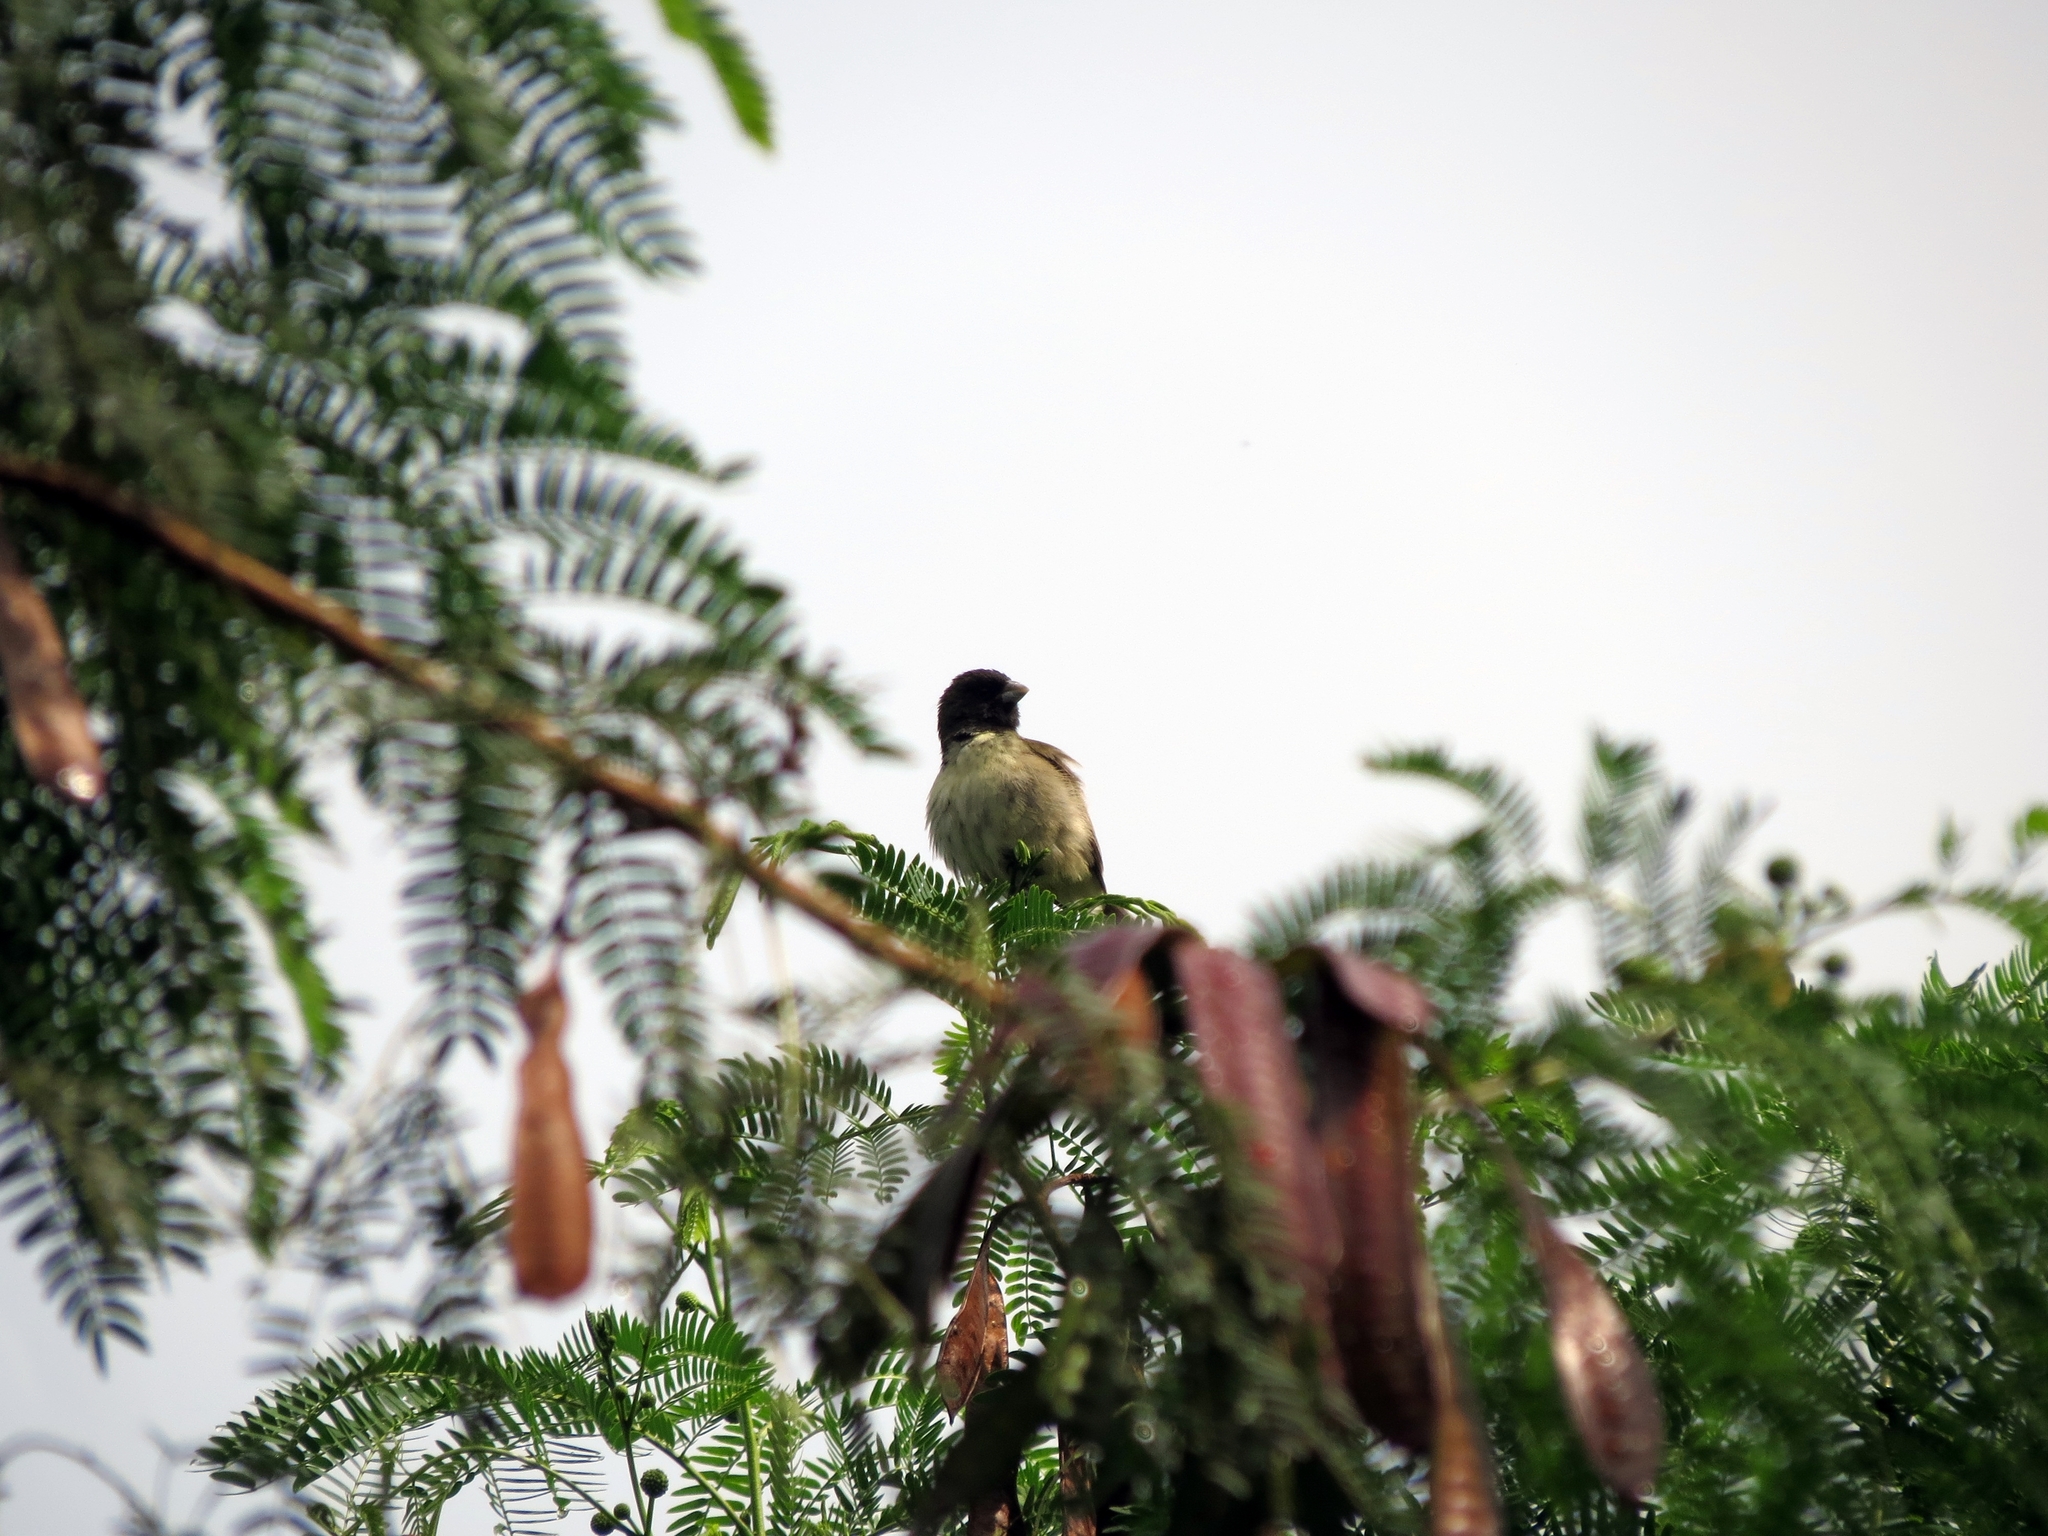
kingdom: Animalia
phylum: Chordata
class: Aves
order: Passeriformes
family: Thraupidae
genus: Sporophila
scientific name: Sporophila nigricollis
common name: Yellow-bellied seedeater
